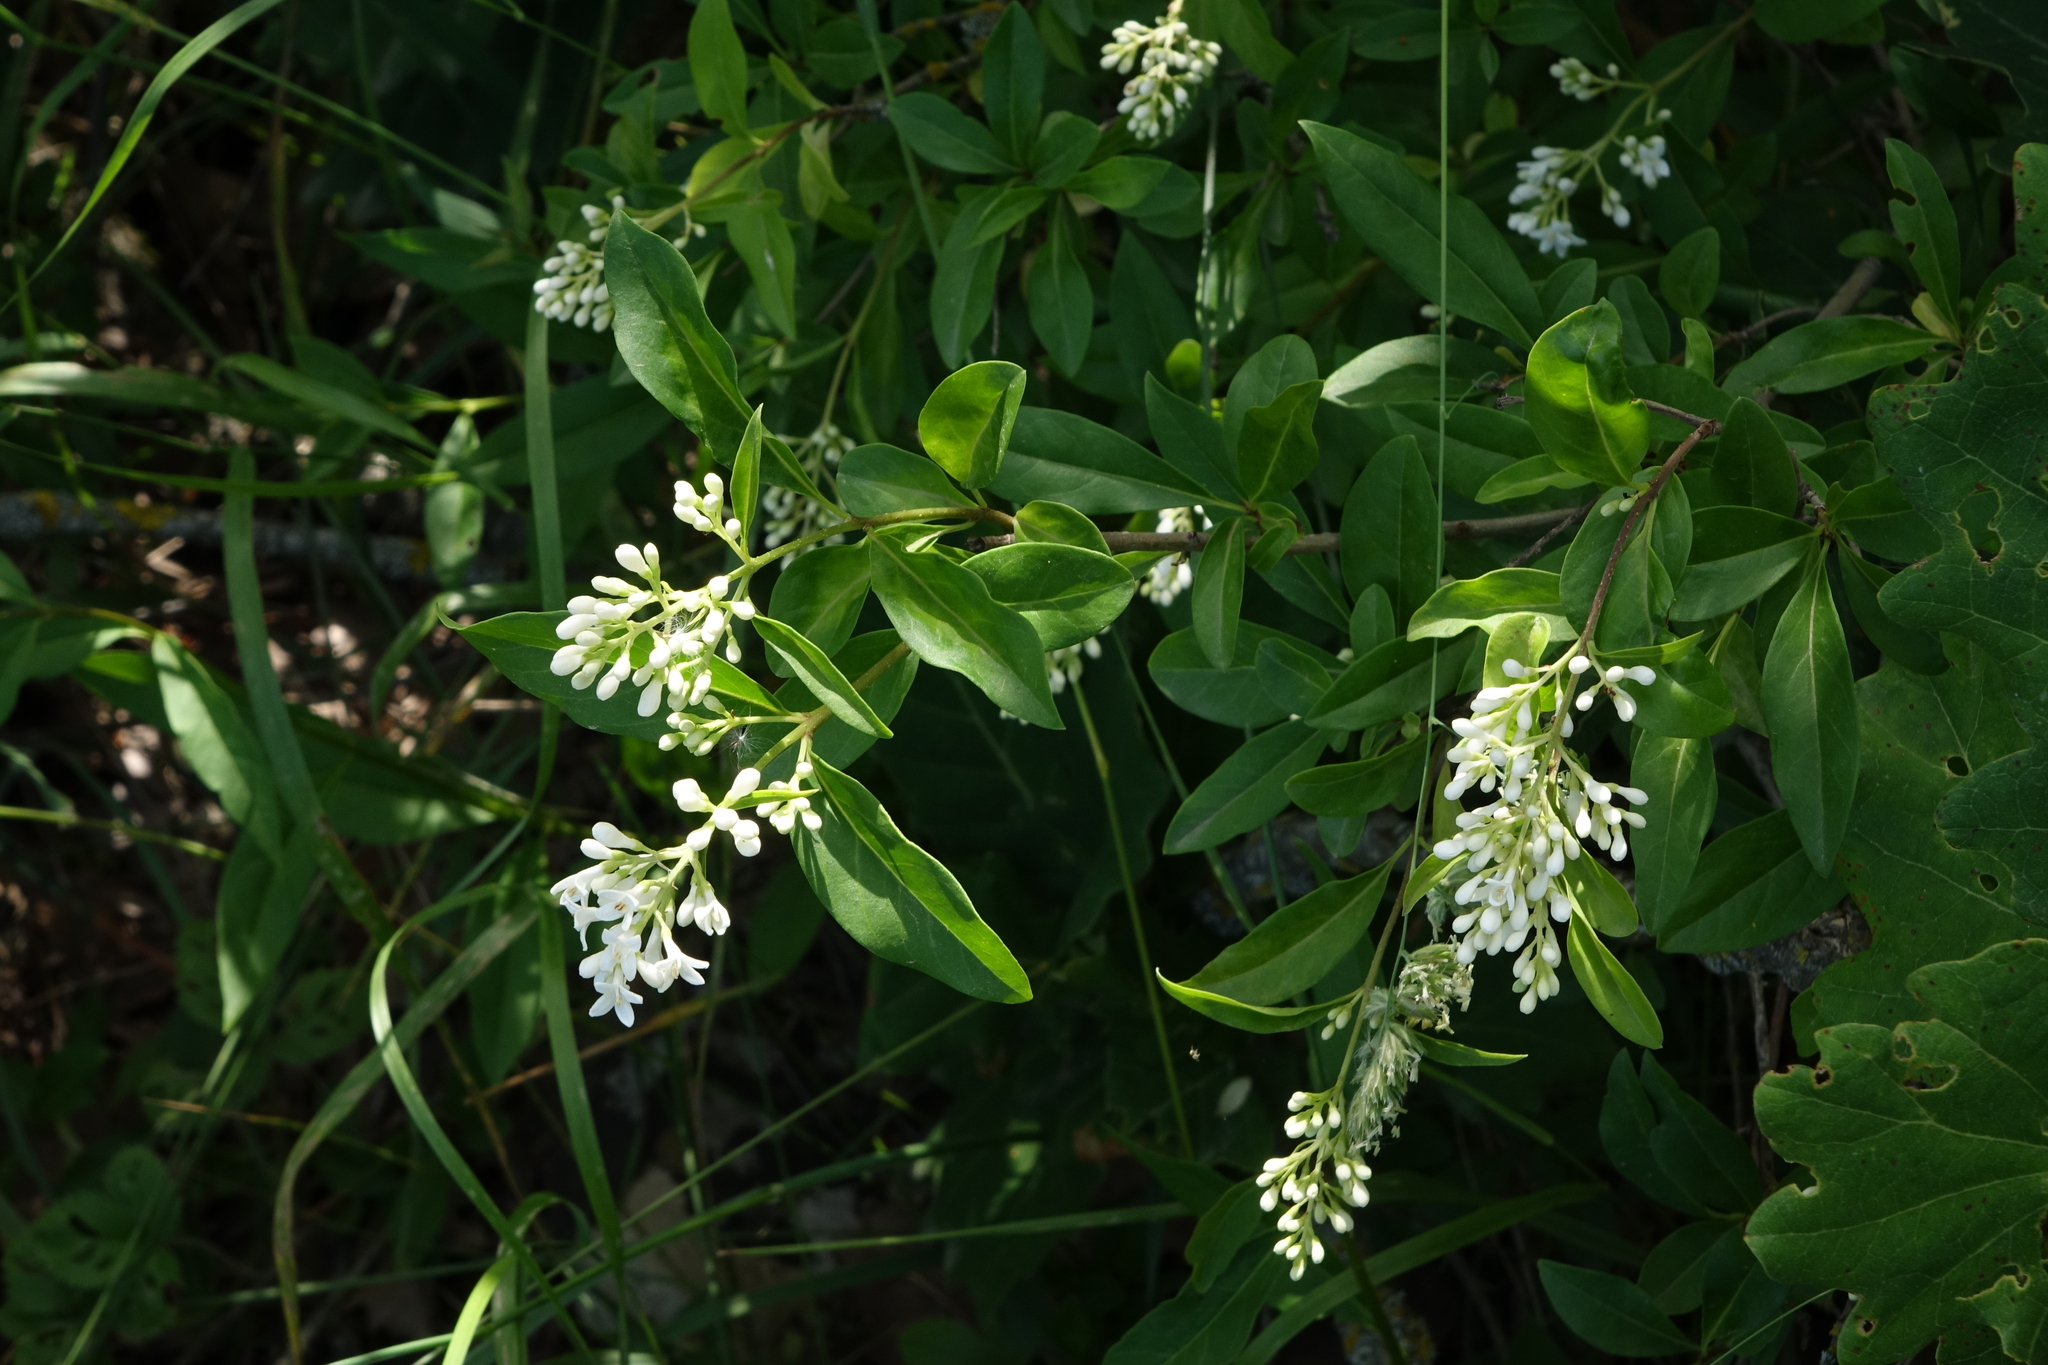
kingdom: Plantae
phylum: Tracheophyta
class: Magnoliopsida
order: Lamiales
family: Oleaceae
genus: Ligustrum
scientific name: Ligustrum vulgare
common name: Wild privet
